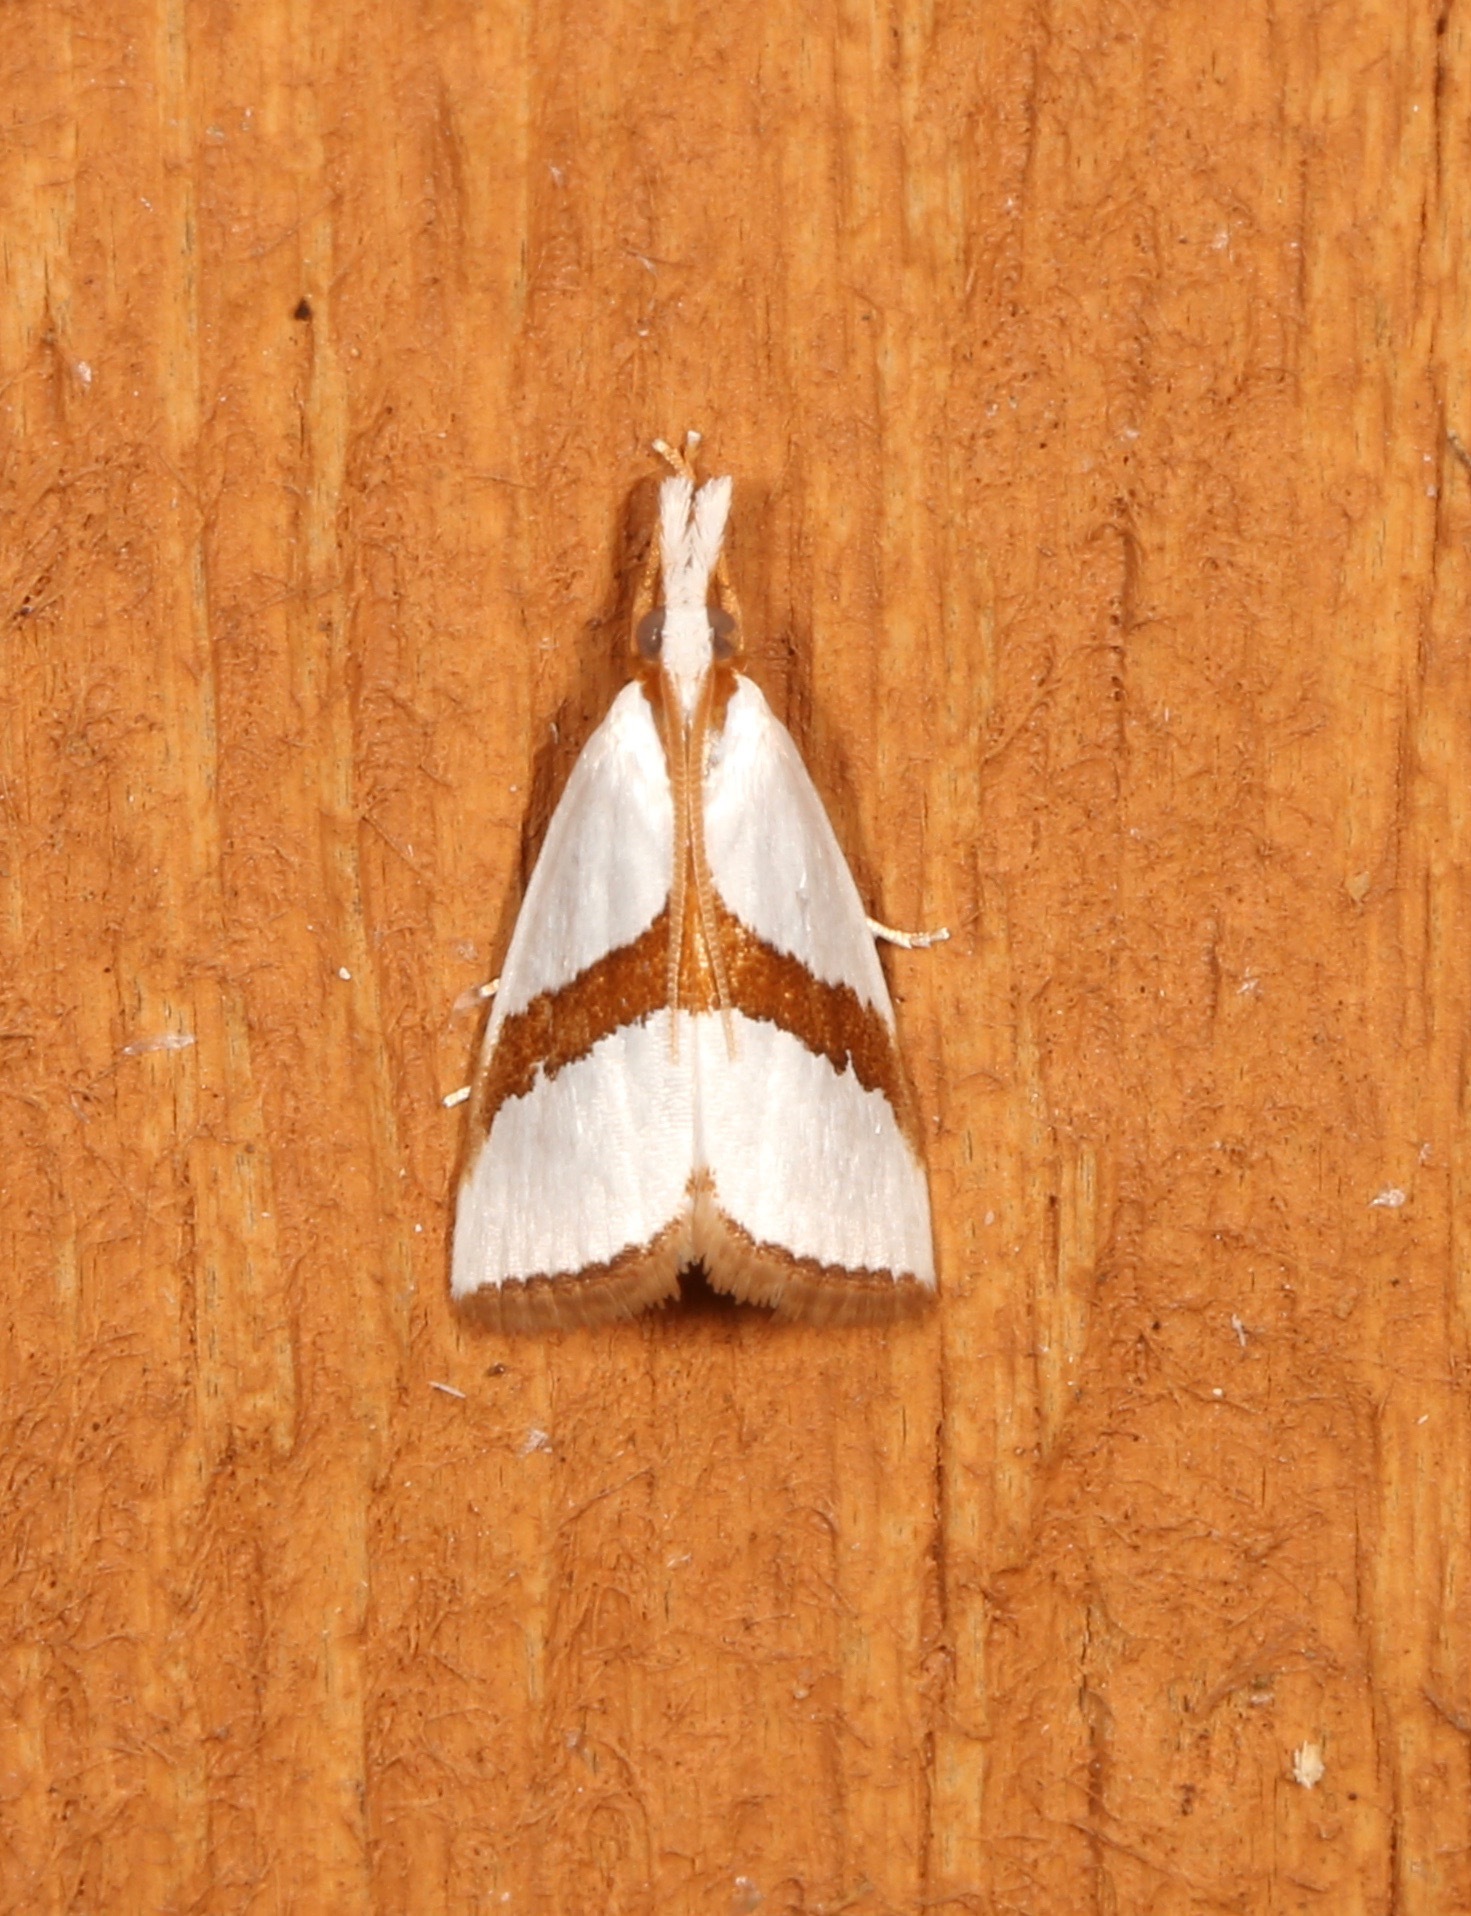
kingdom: Animalia
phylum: Arthropoda
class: Insecta
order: Lepidoptera
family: Crambidae
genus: Vaxi
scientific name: Vaxi critica
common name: Straight-lined vaxi moth
